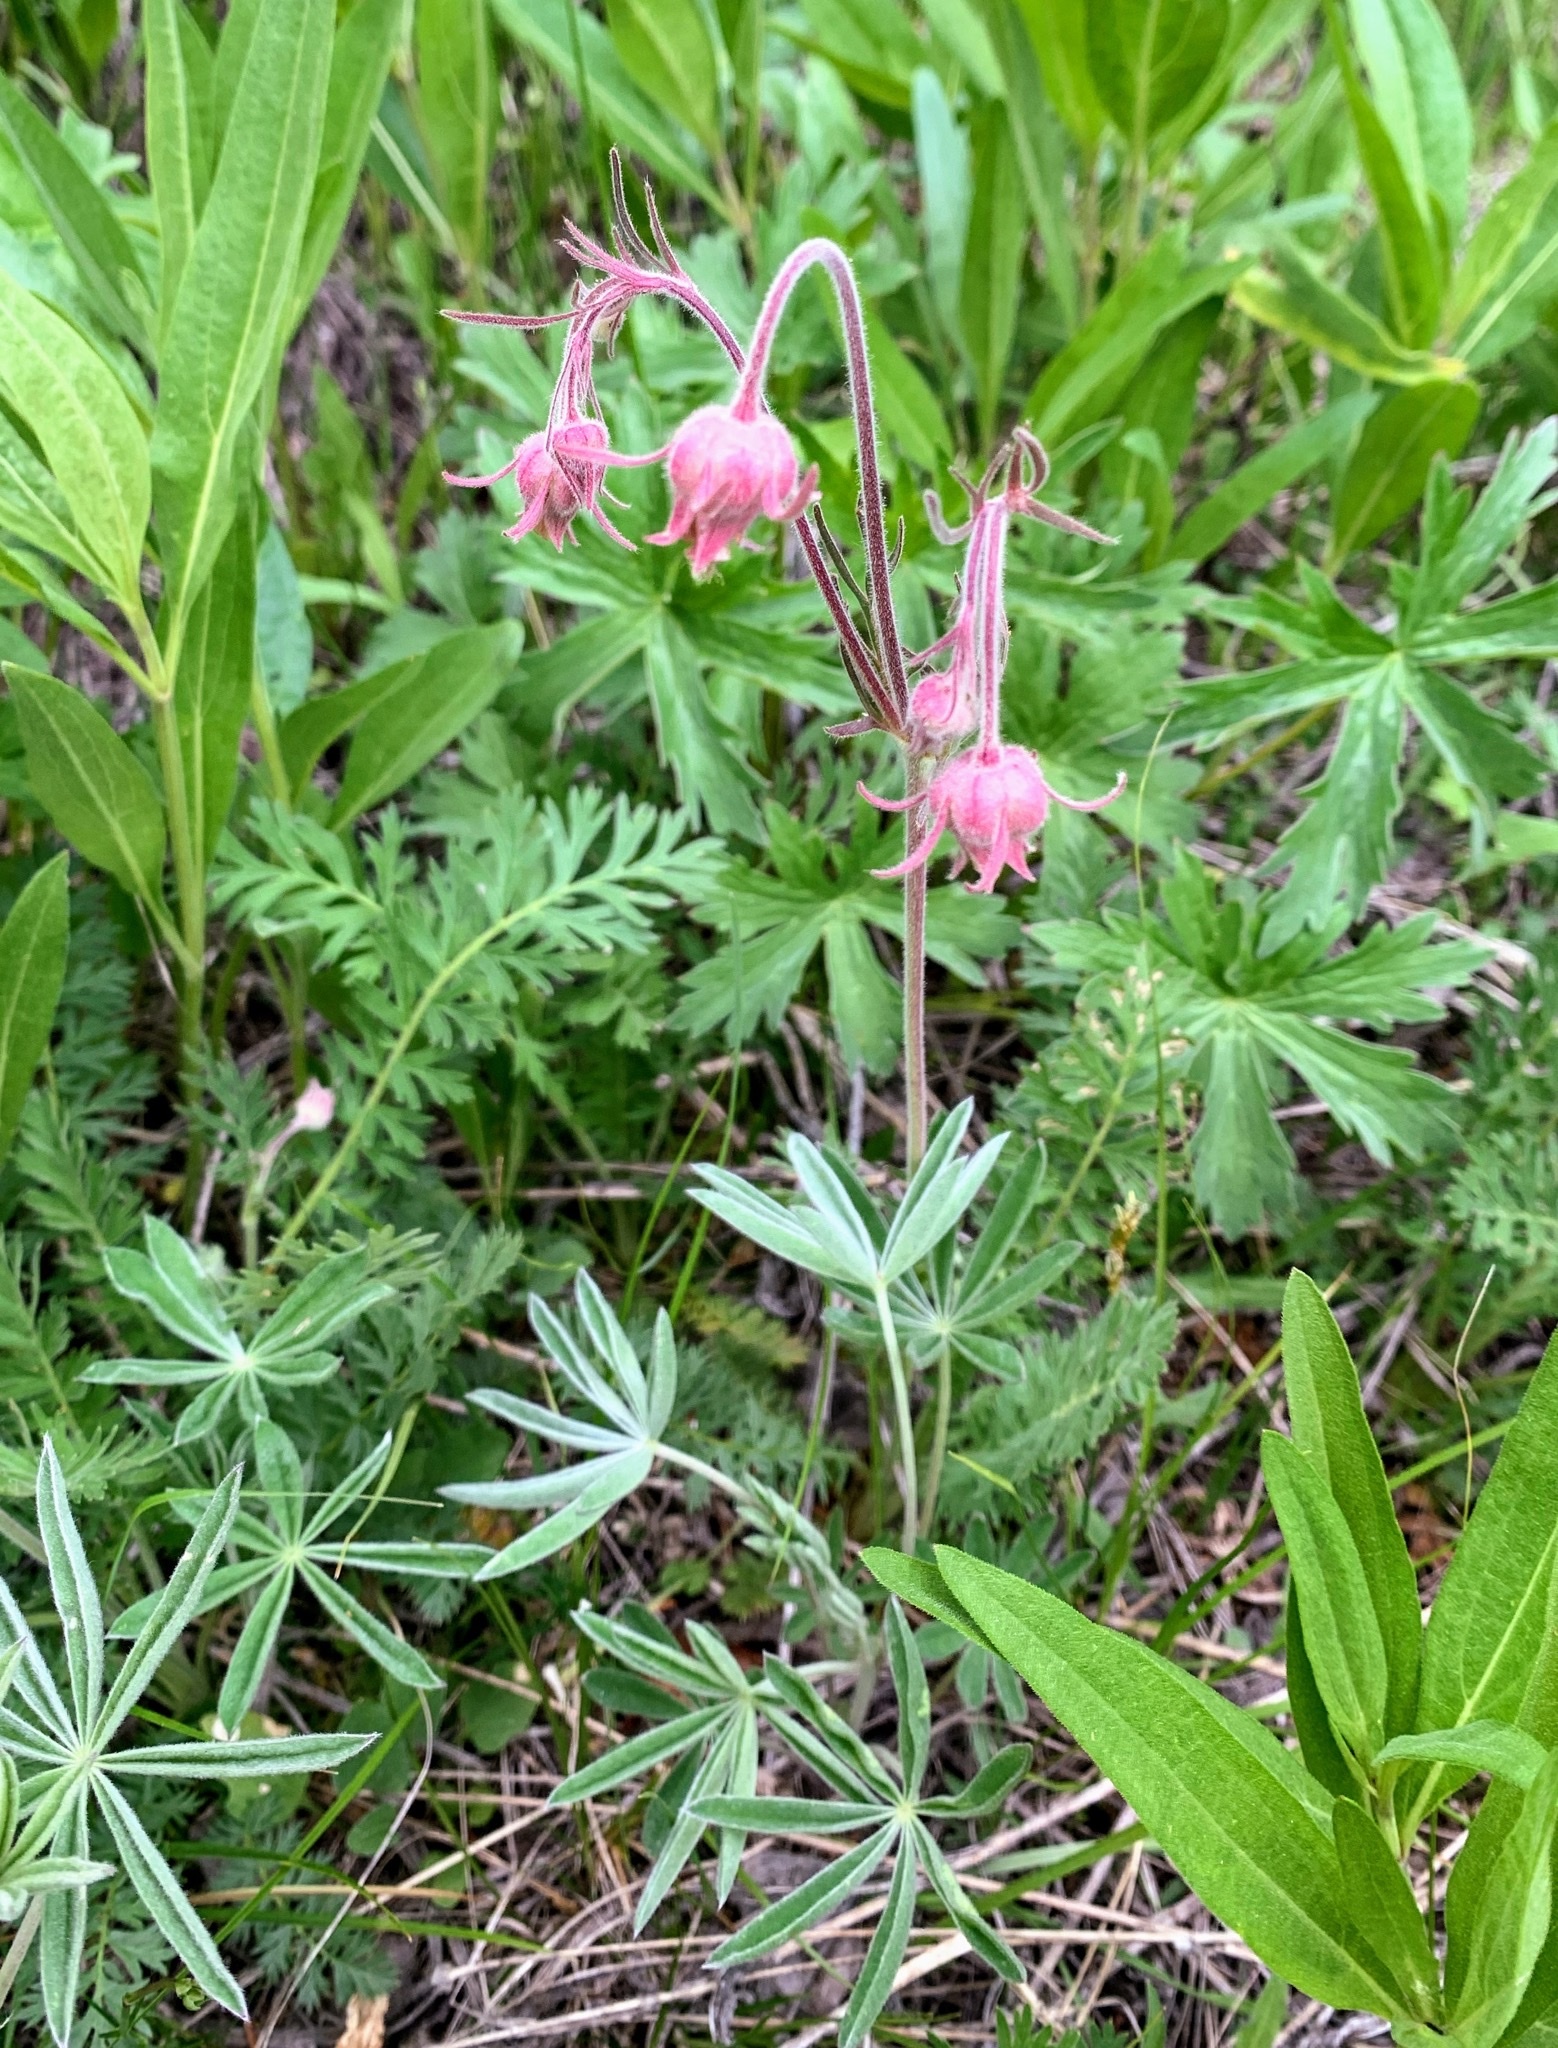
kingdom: Plantae
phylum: Tracheophyta
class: Magnoliopsida
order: Rosales
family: Rosaceae
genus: Geum
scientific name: Geum triflorum
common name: Old man's whiskers
